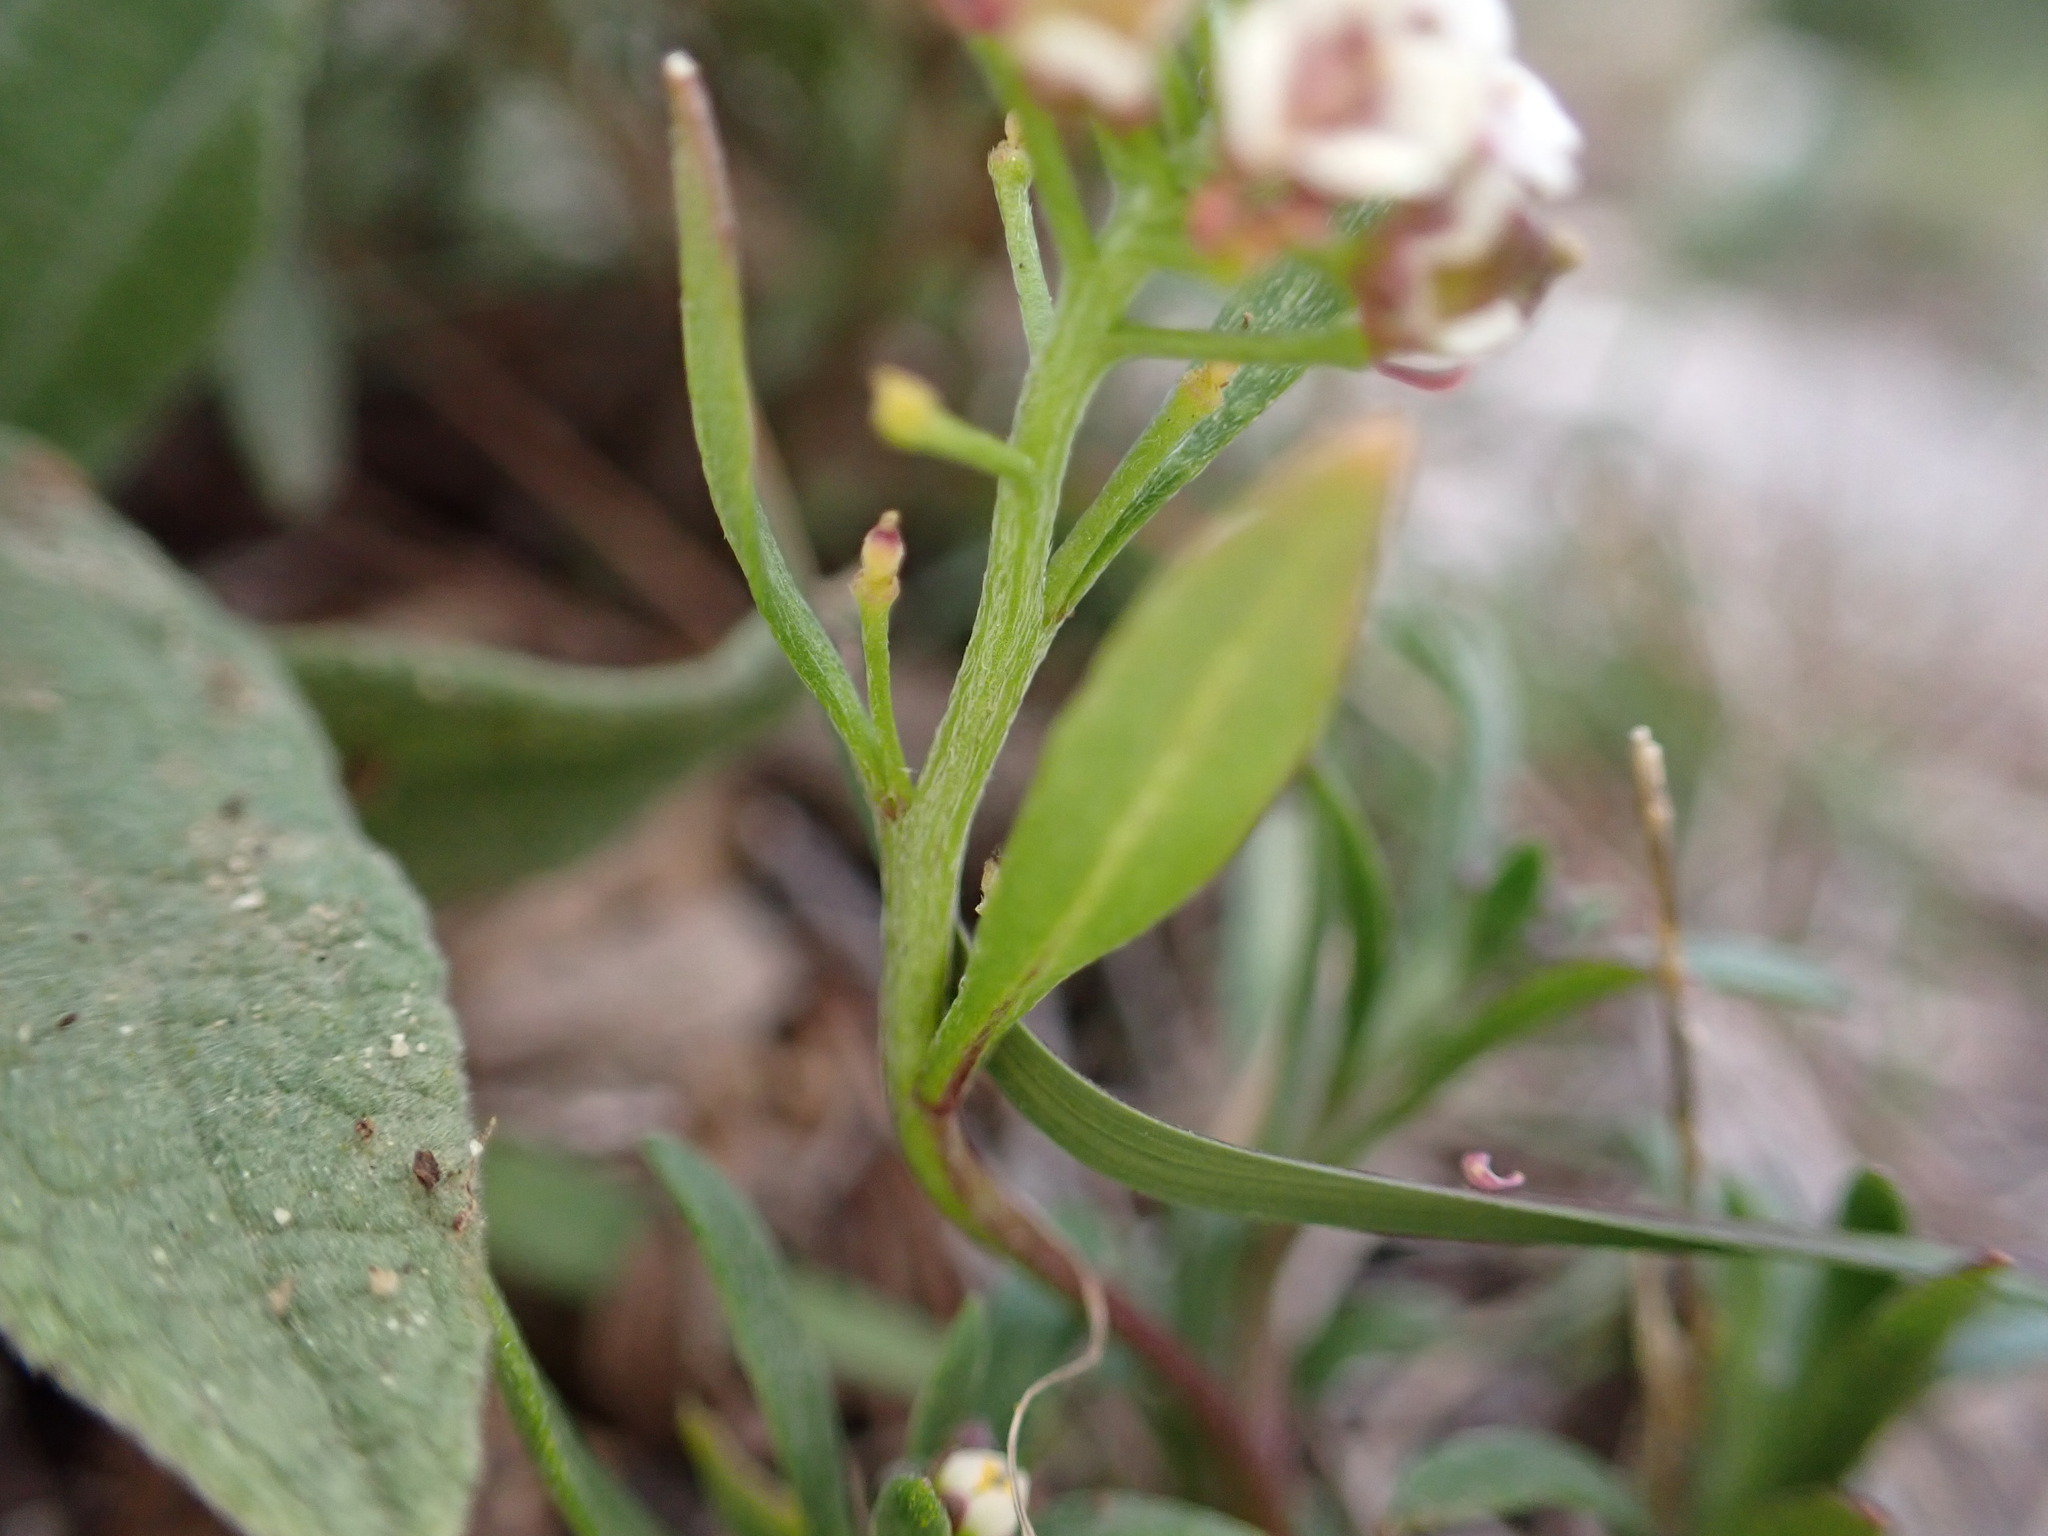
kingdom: Plantae
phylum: Tracheophyta
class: Magnoliopsida
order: Brassicales
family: Brassicaceae
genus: Lobularia
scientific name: Lobularia maritima
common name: Sweet alison
